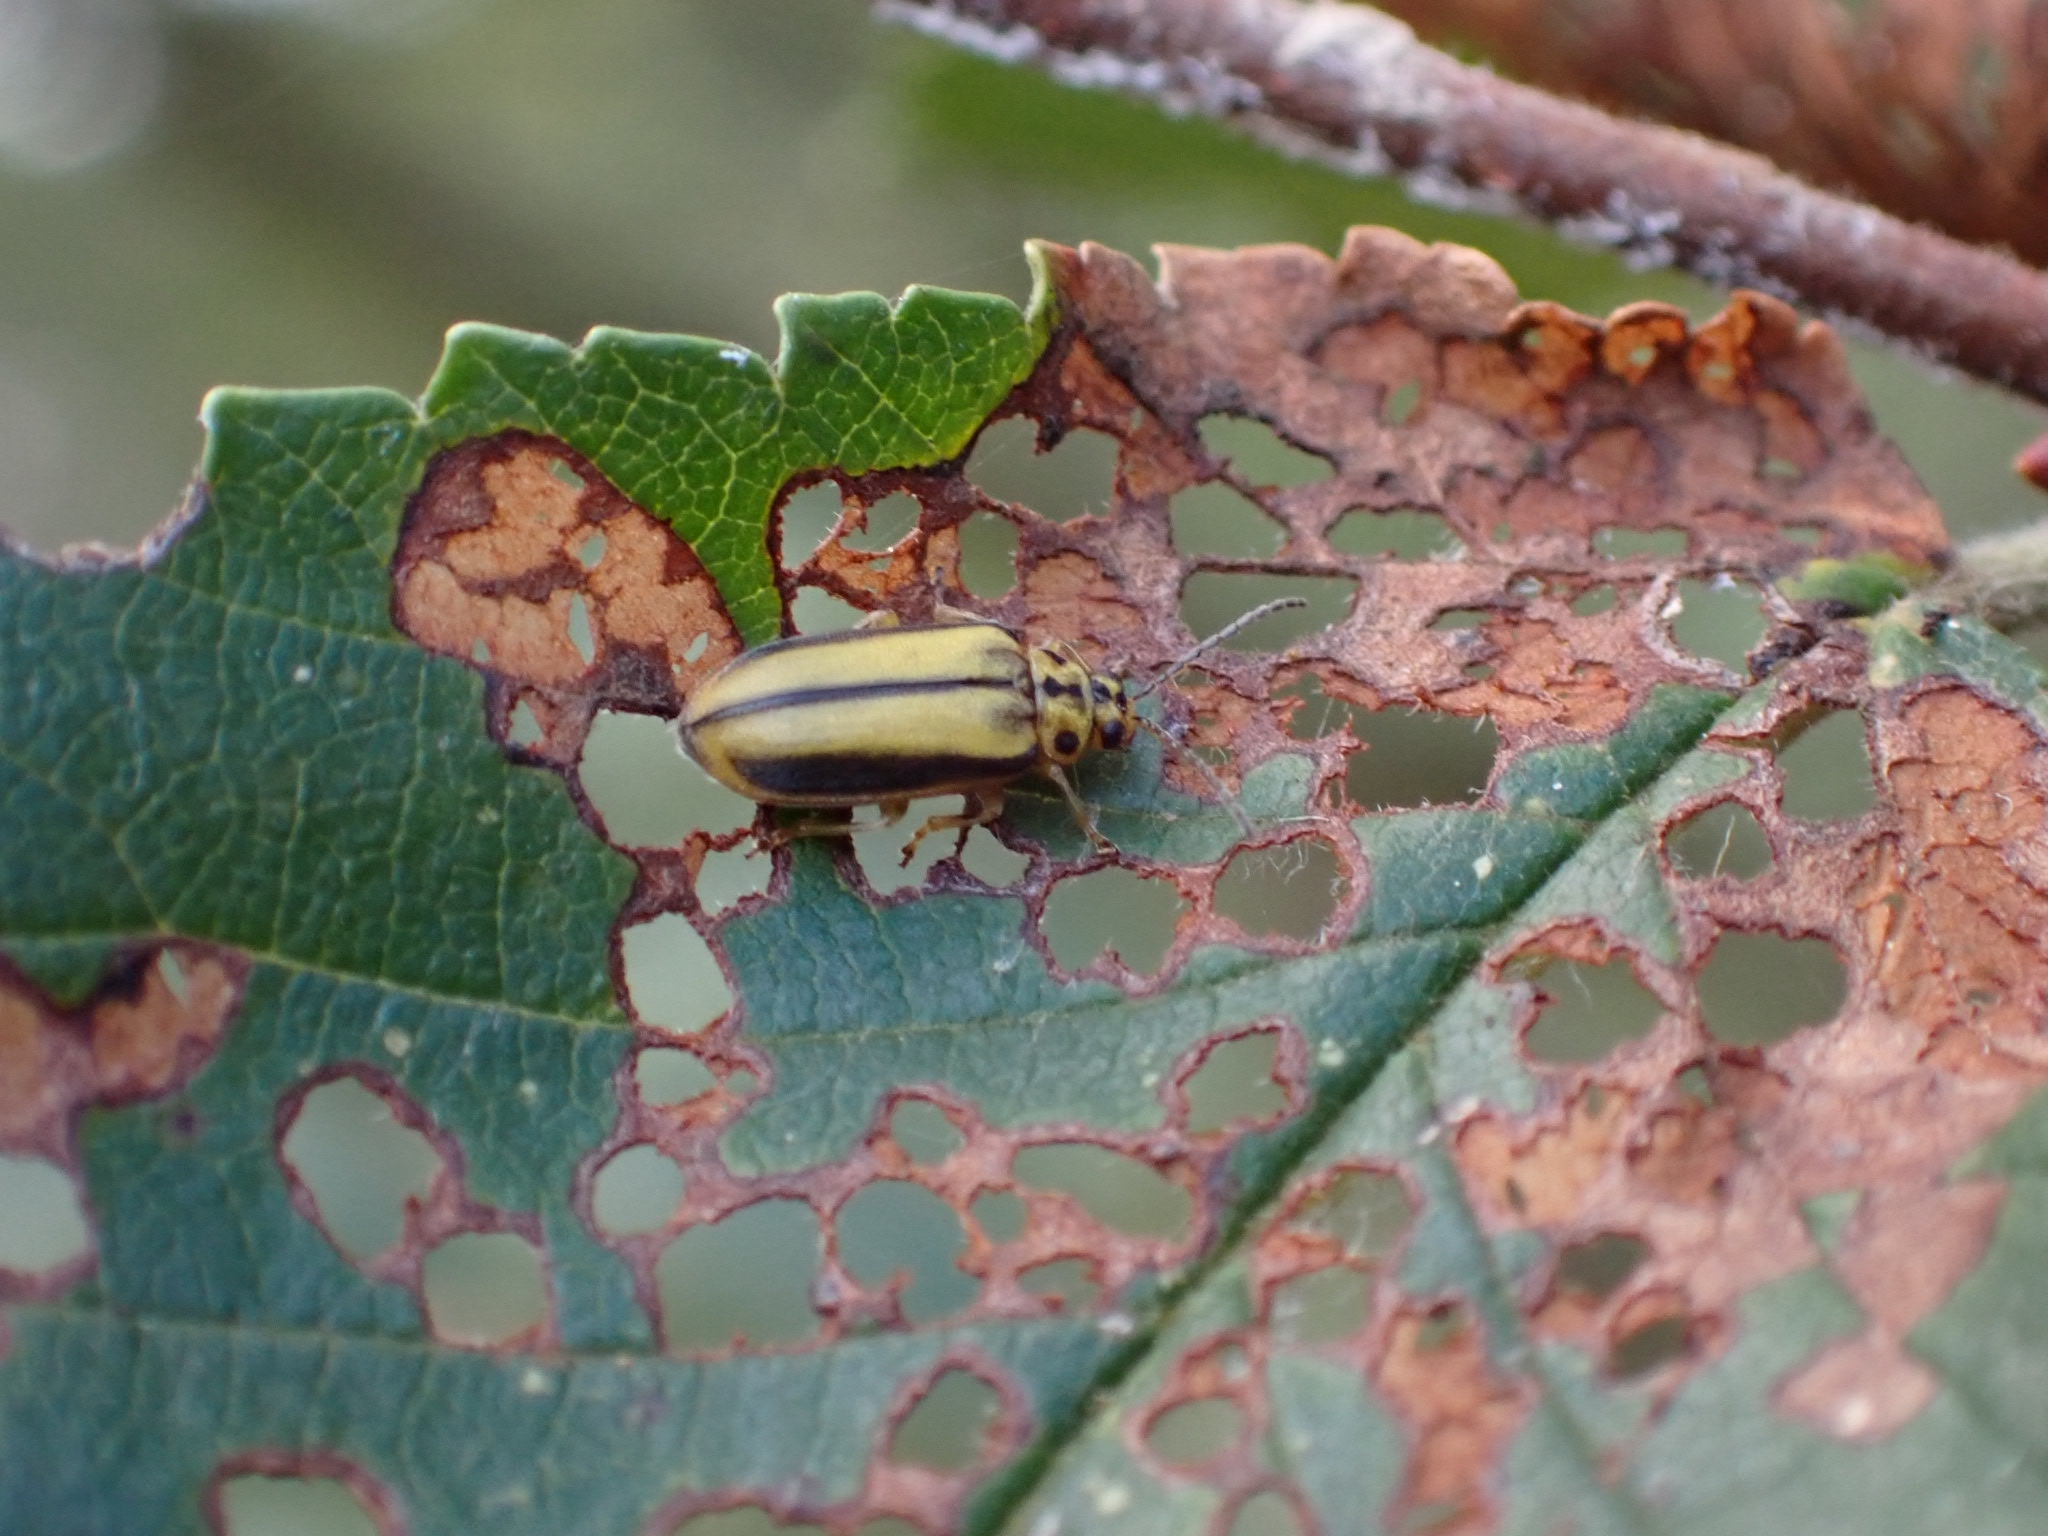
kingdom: Animalia
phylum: Arthropoda
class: Insecta
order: Coleoptera
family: Chrysomelidae
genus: Xanthogaleruca
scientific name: Xanthogaleruca luteola
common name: Elm leaf beetle
